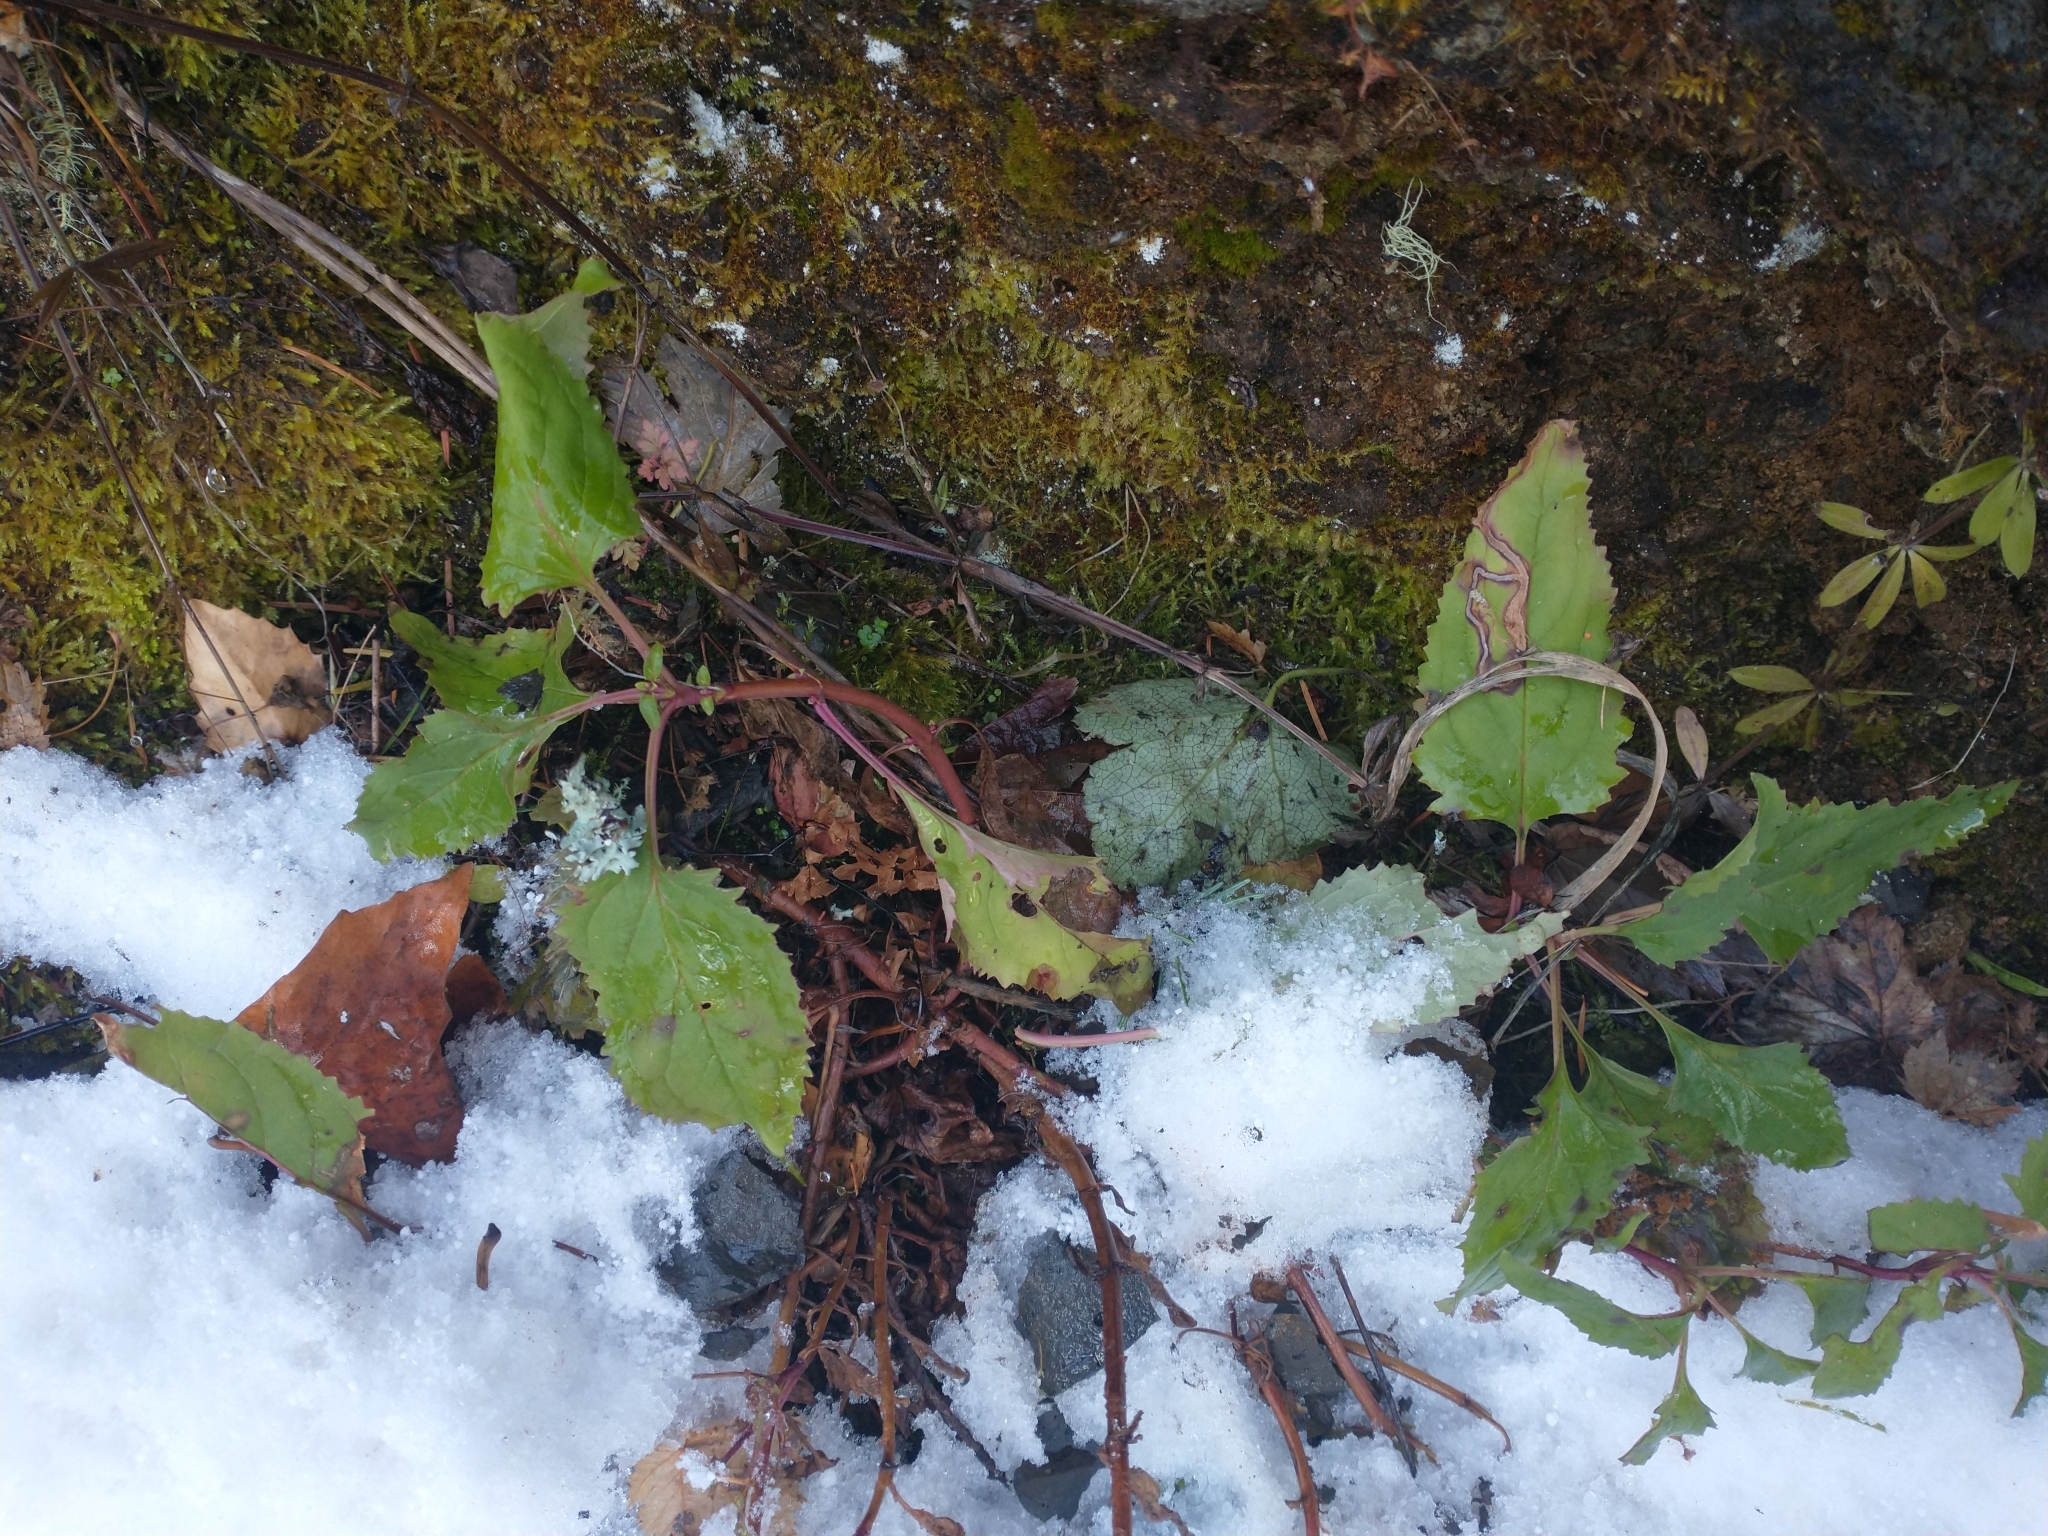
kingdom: Plantae
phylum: Tracheophyta
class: Magnoliopsida
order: Lamiales
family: Plantaginaceae
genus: Penstemon
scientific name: Penstemon serrulatus
